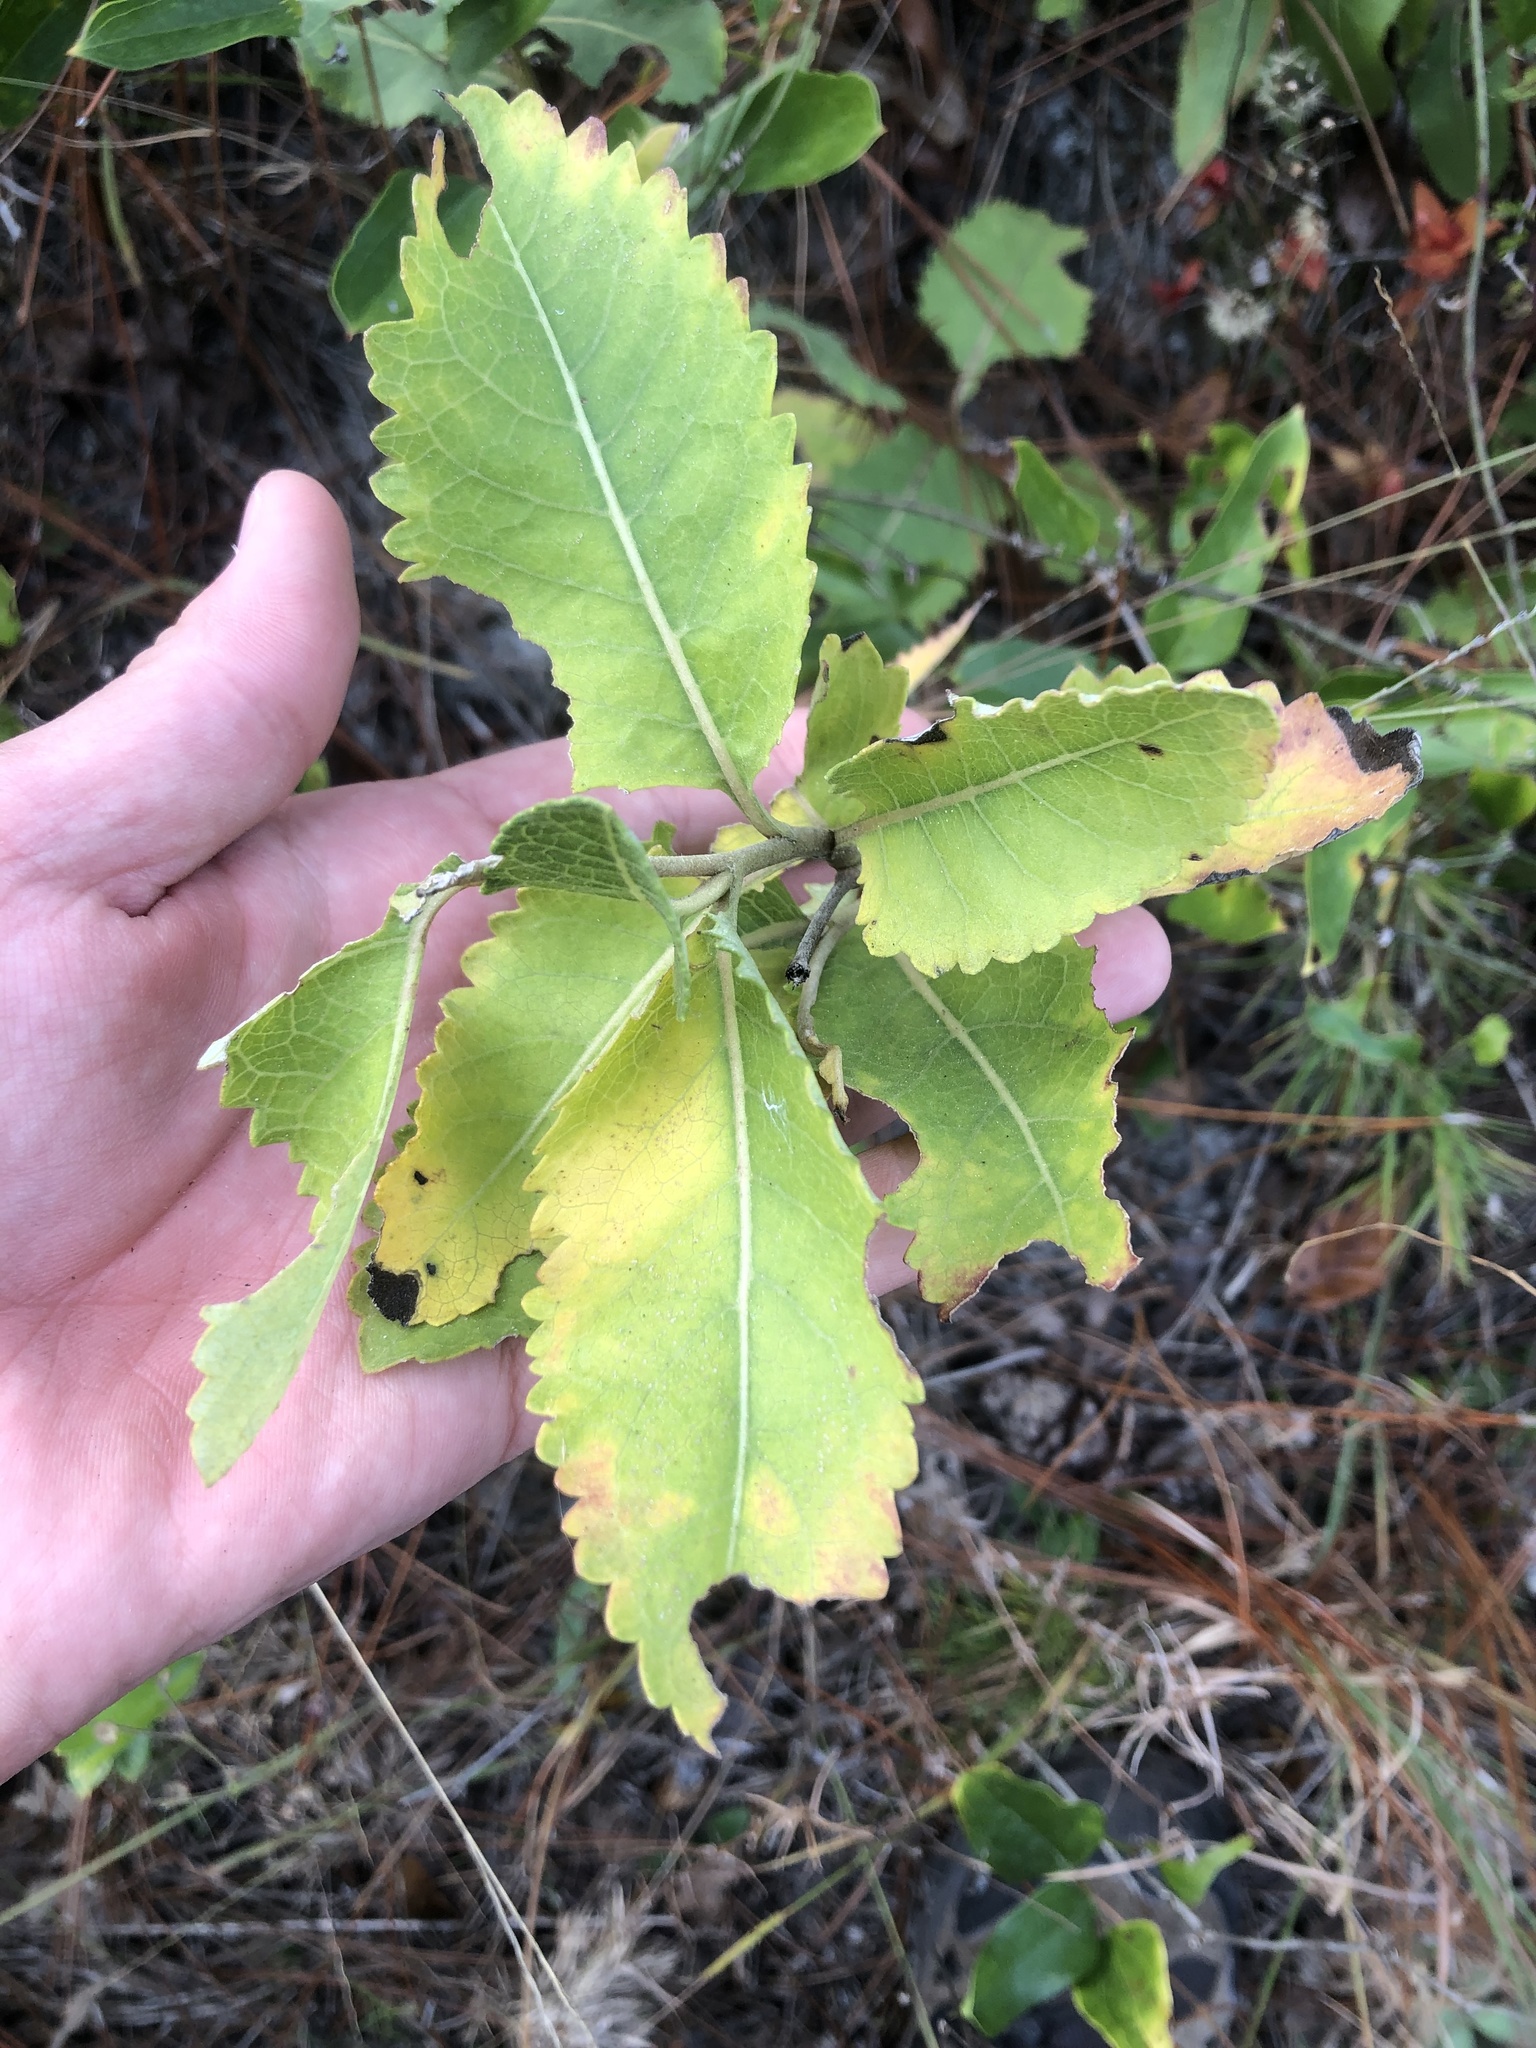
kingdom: Plantae
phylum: Tracheophyta
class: Magnoliopsida
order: Asterales
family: Asteraceae
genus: Berlandiera
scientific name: Berlandiera pumila
